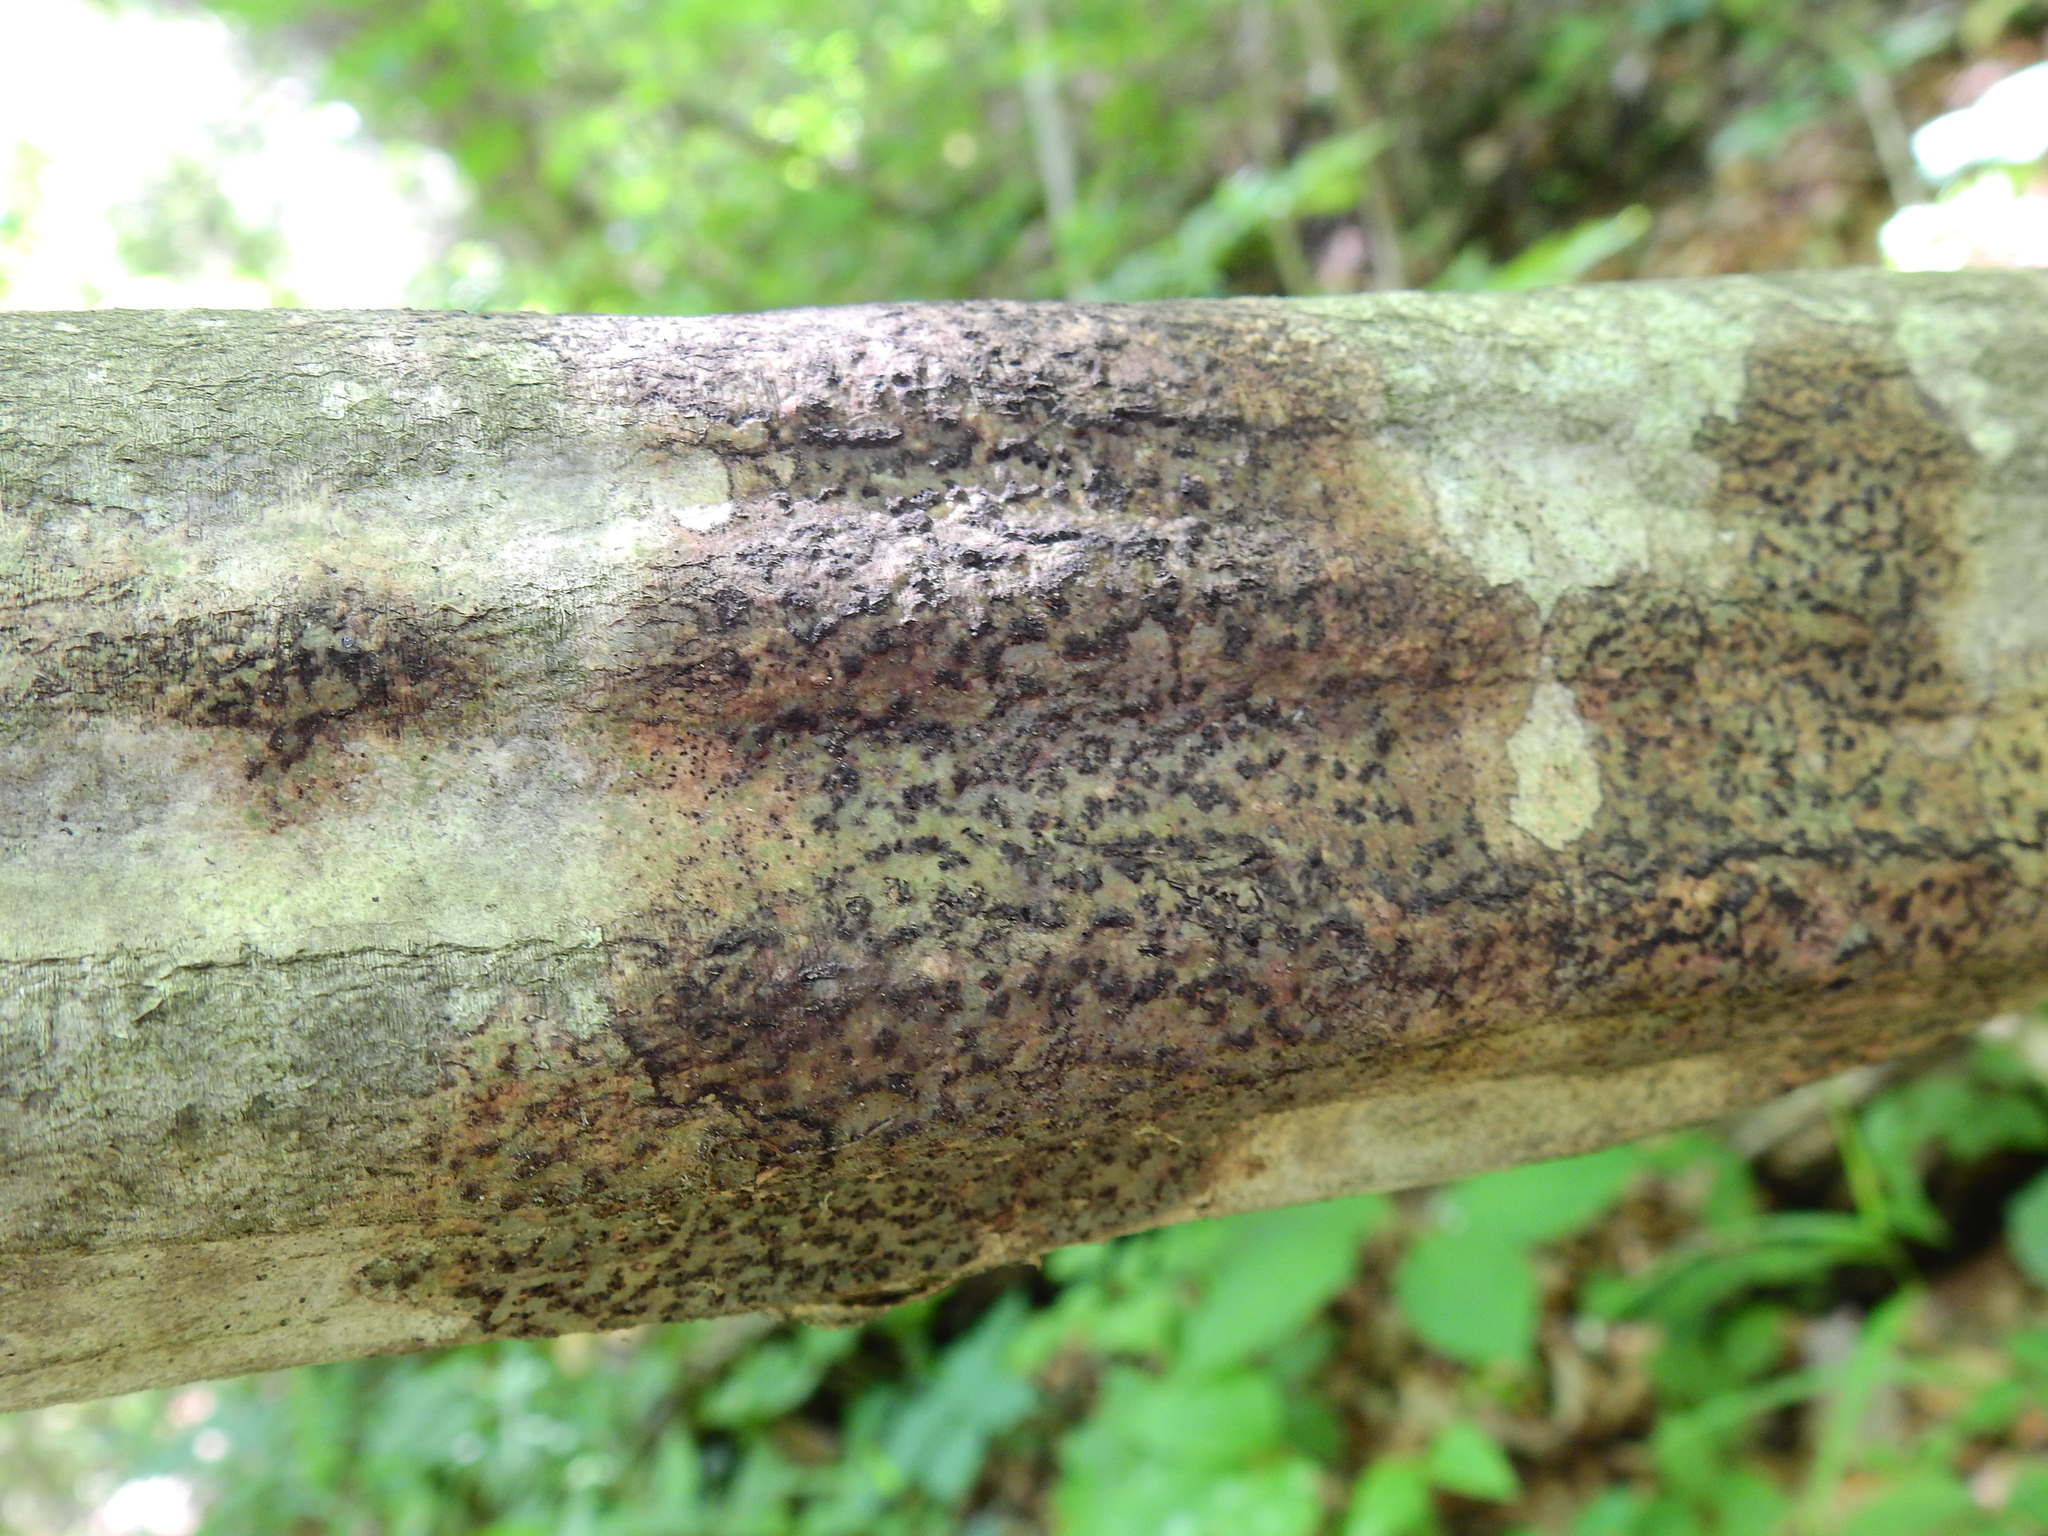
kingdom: Fungi
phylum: Ascomycota
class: Dothideomycetes
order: Trypetheliales
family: Trypetheliaceae
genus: Viridothelium
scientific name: Viridothelium virens
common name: Speckled blister lichen
